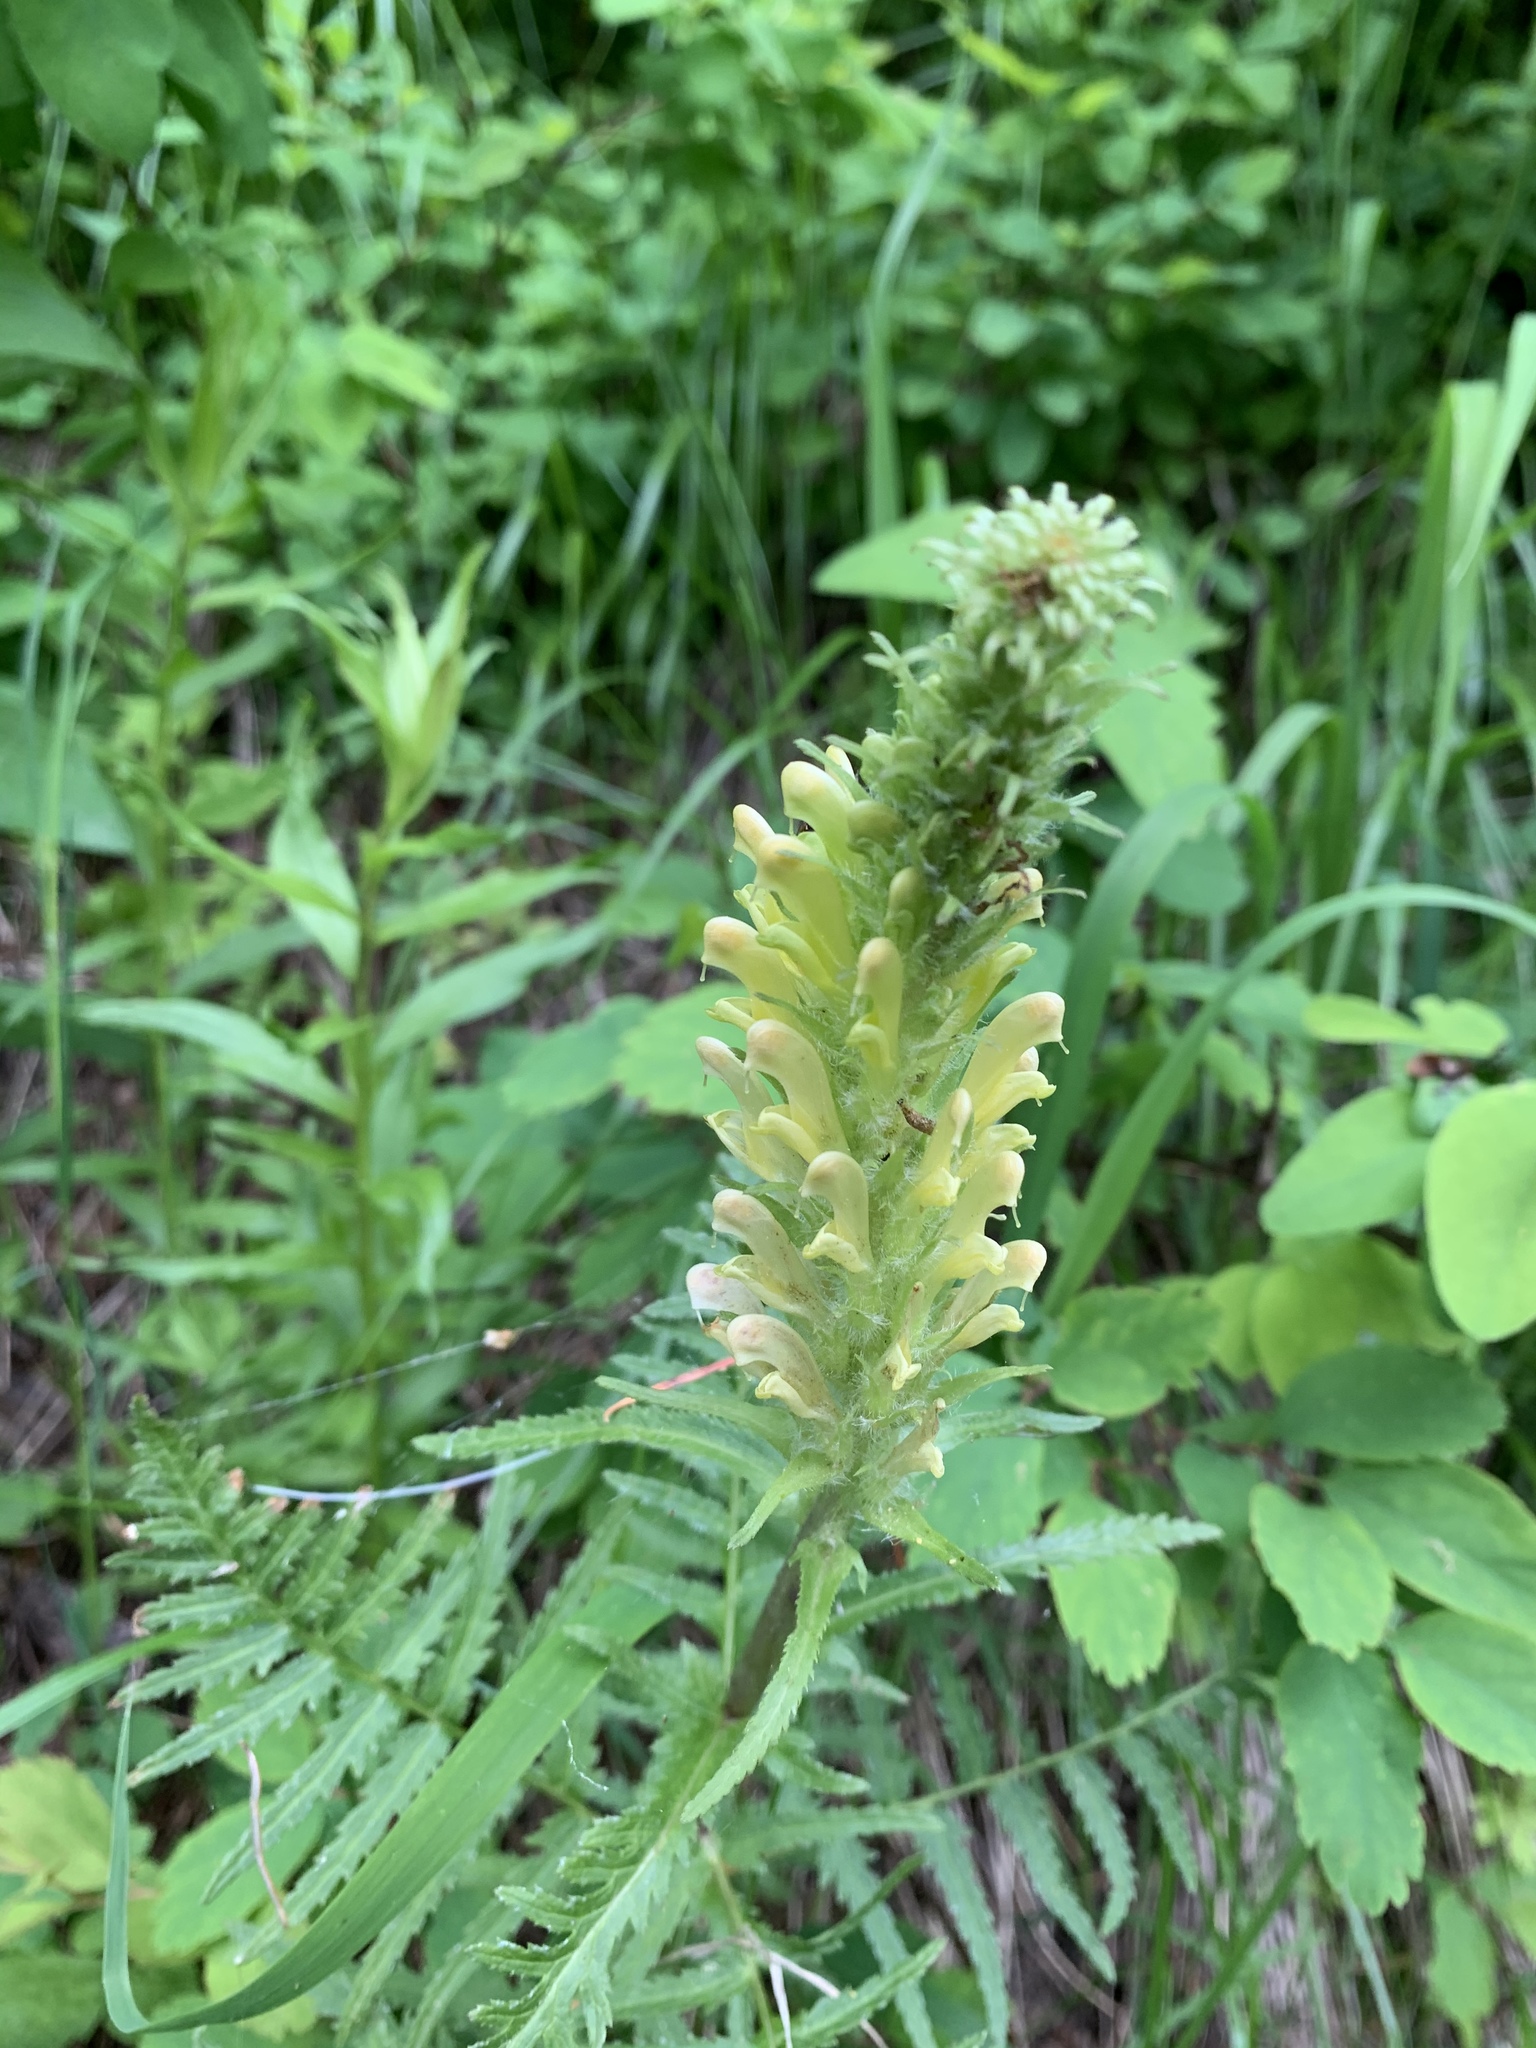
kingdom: Plantae
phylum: Tracheophyta
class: Magnoliopsida
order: Lamiales
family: Orobanchaceae
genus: Pedicularis
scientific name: Pedicularis bracteosa
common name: Bracted lousewort
